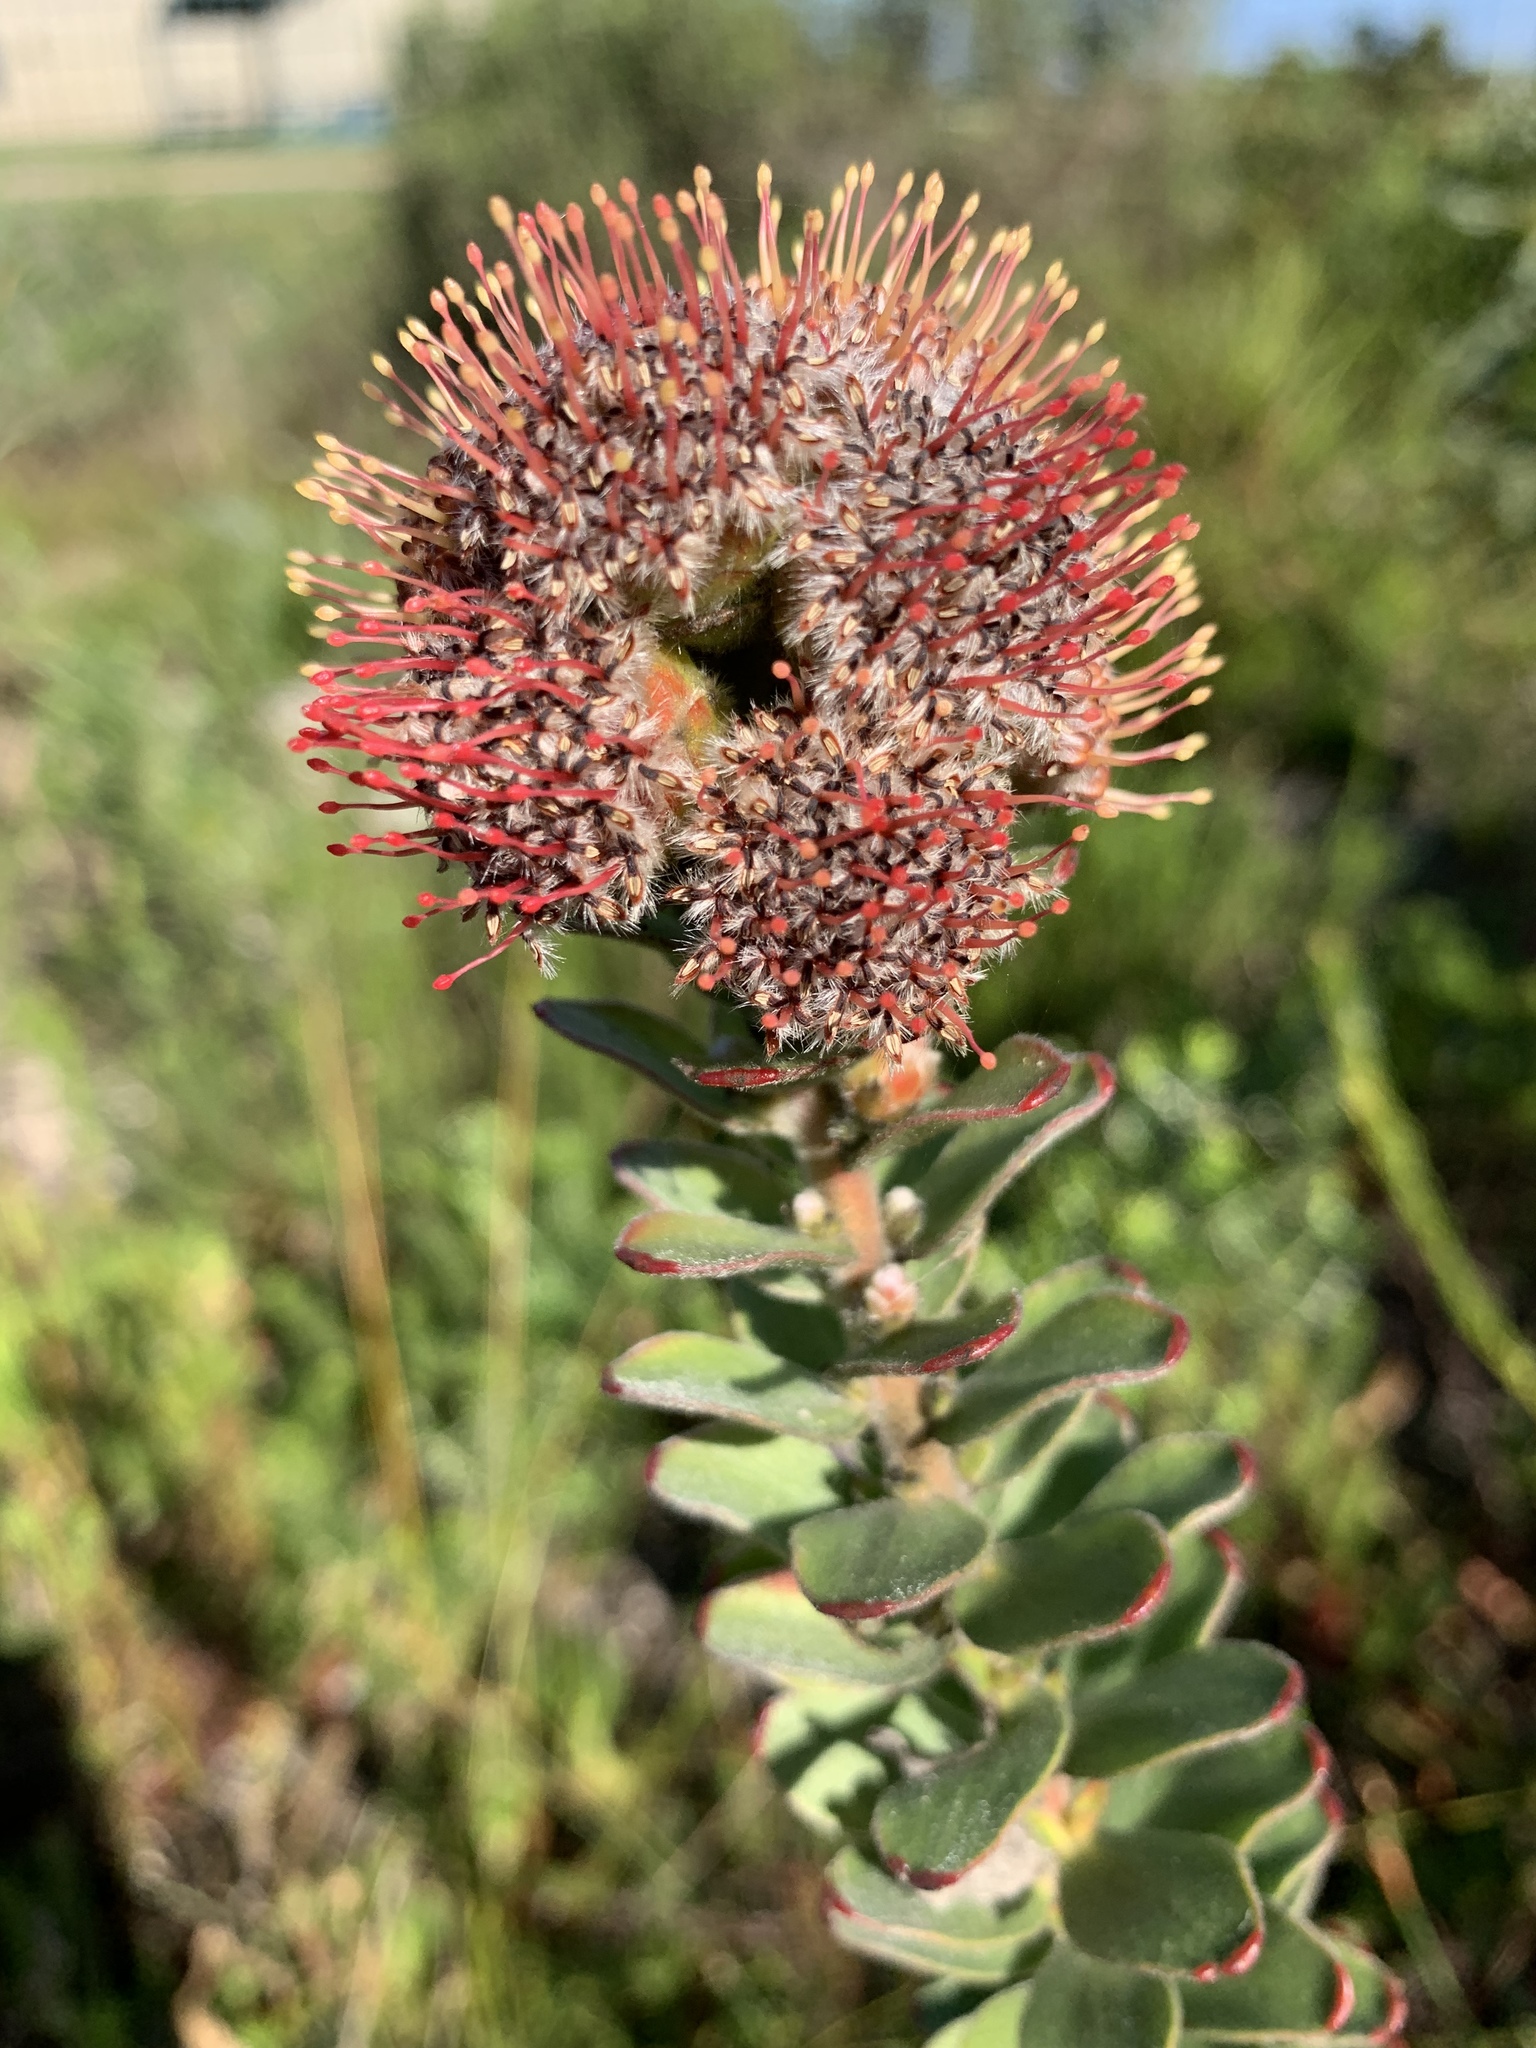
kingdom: Plantae
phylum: Tracheophyta
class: Magnoliopsida
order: Proteales
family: Proteaceae
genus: Leucospermum
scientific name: Leucospermum truncatulum
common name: Oval-leaf pincushion
